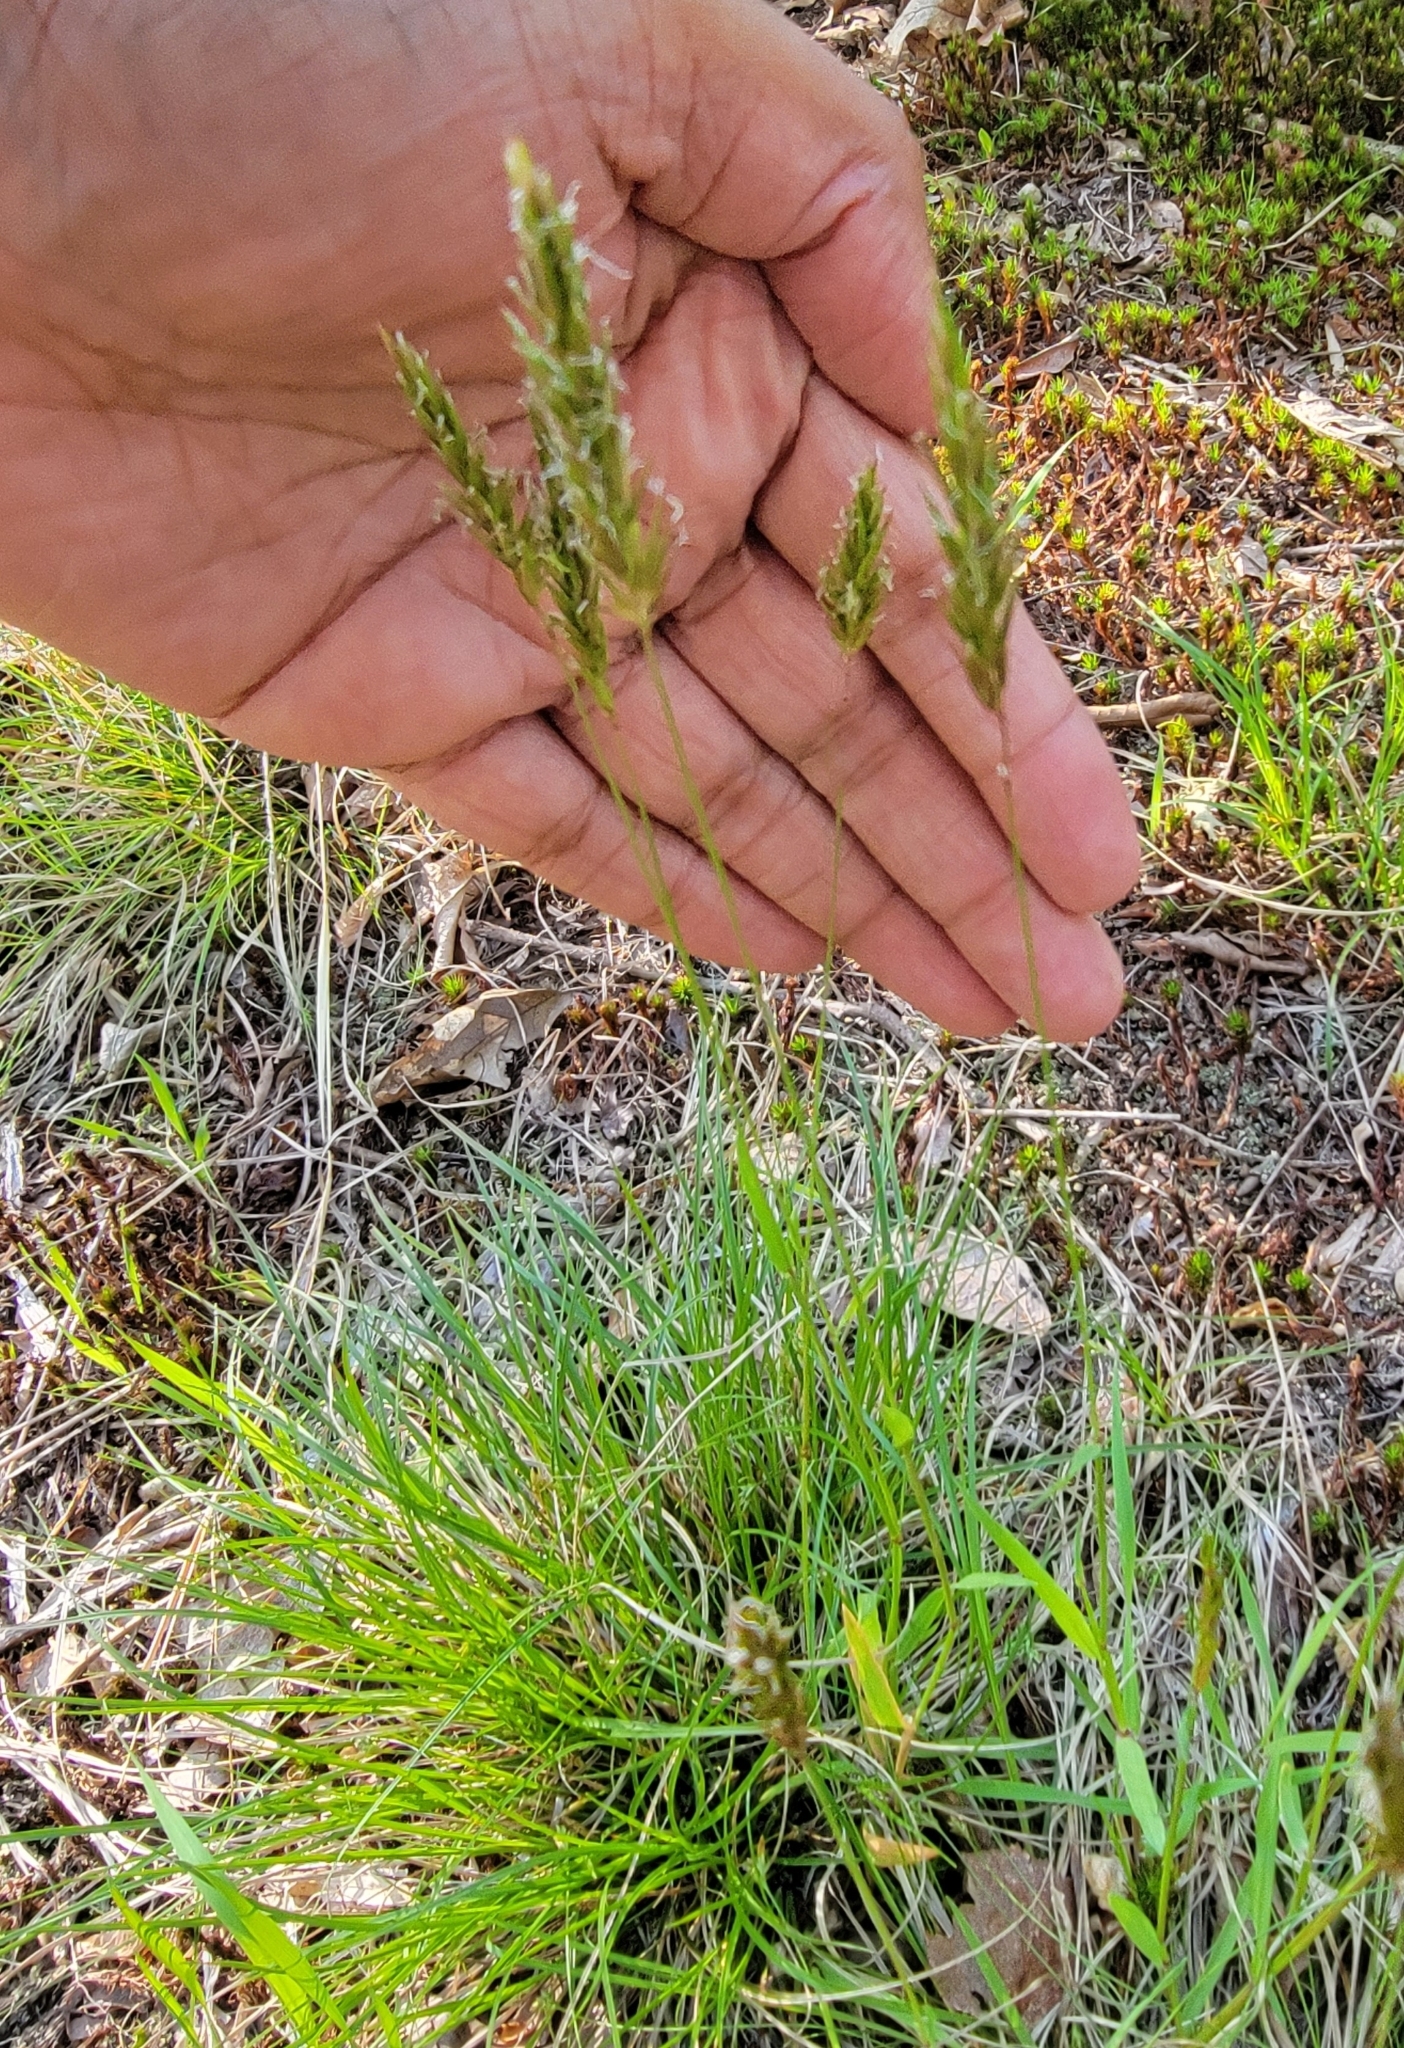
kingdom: Plantae
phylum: Tracheophyta
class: Liliopsida
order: Poales
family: Poaceae
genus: Anthoxanthum
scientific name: Anthoxanthum odoratum
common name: Sweet vernalgrass
